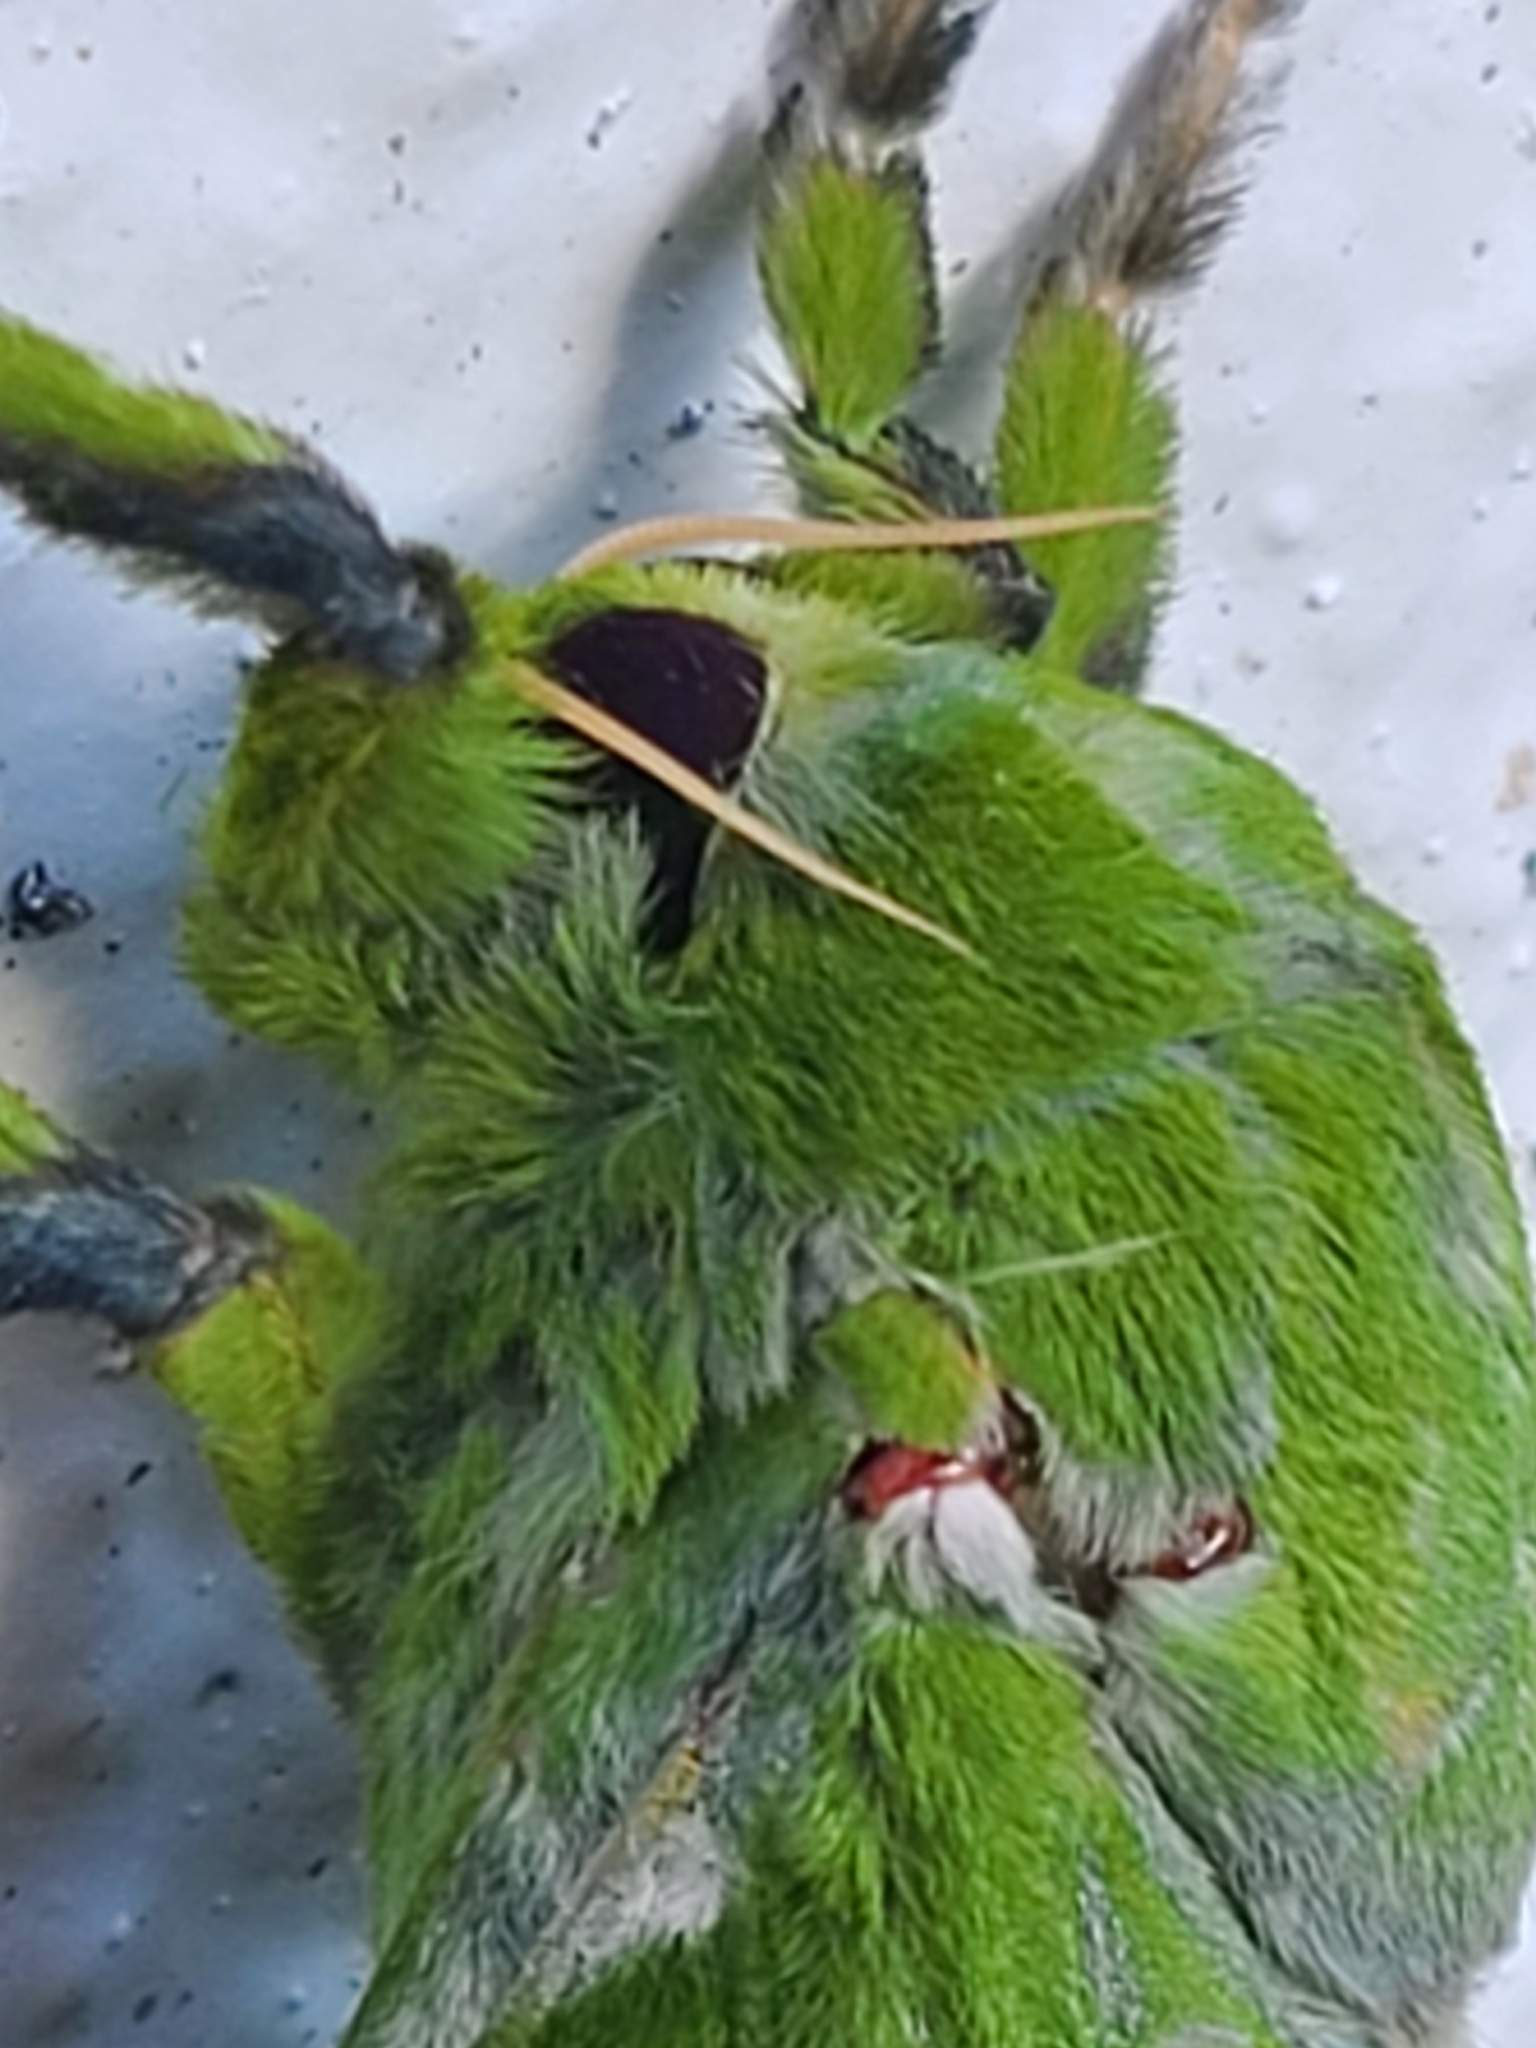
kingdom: Animalia
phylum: Arthropoda
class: Insecta
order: Lepidoptera
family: Hepialidae
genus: Aenetus
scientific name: Aenetus virescens
